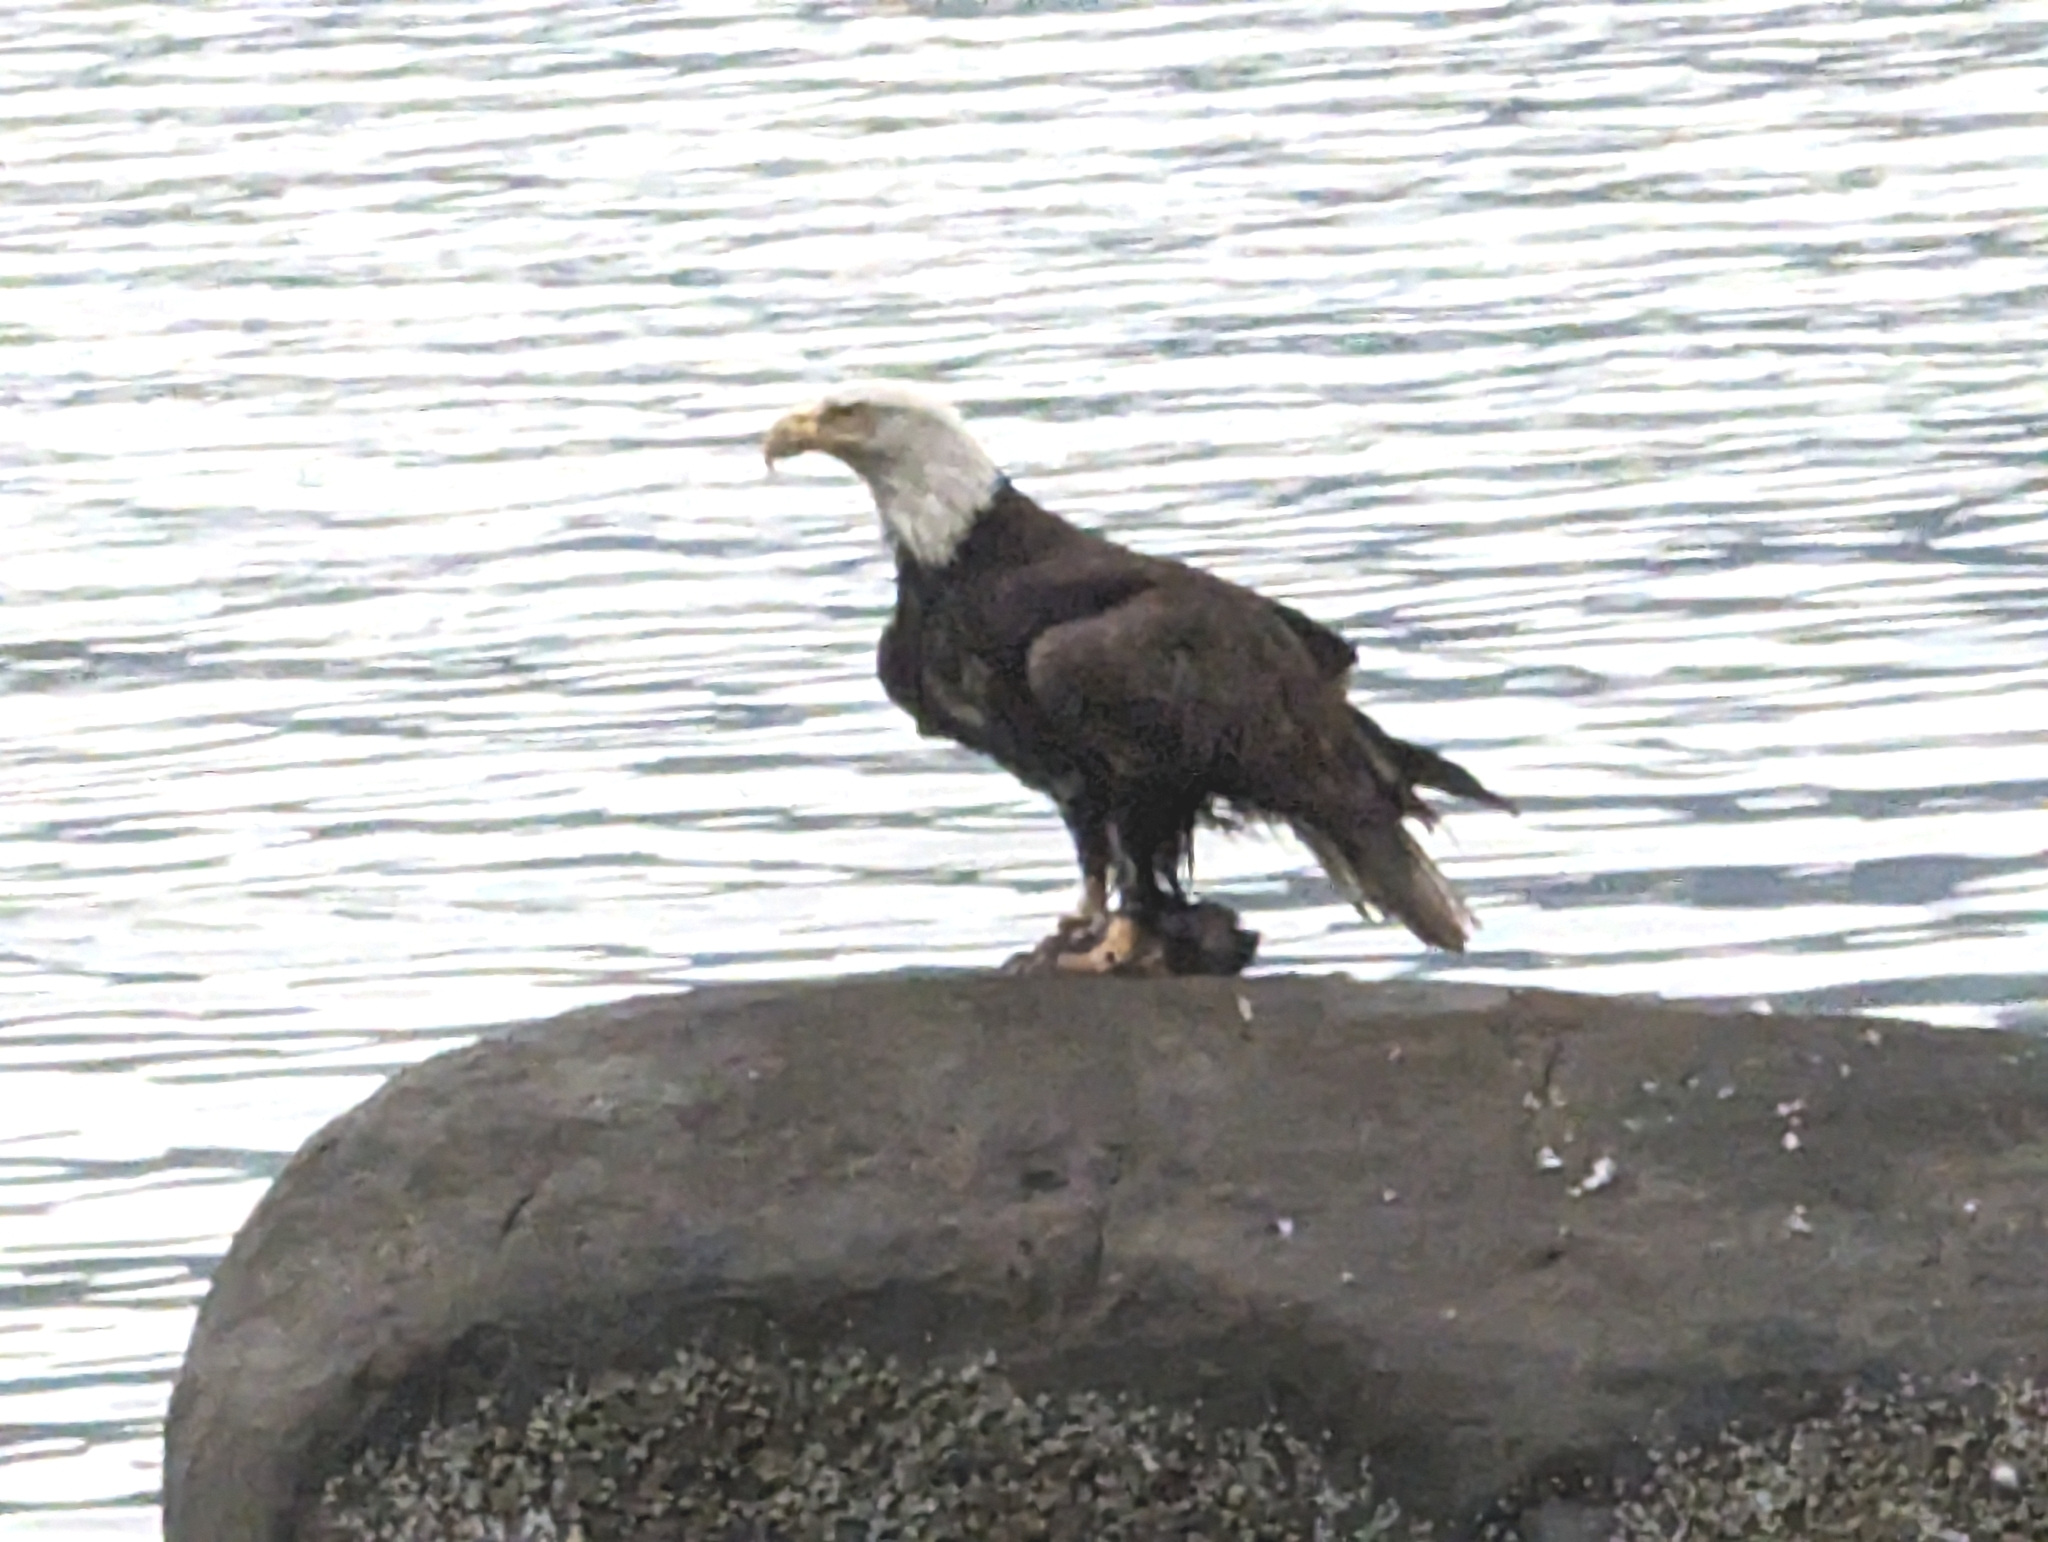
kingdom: Animalia
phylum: Chordata
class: Aves
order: Accipitriformes
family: Accipitridae
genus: Haliaeetus
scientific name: Haliaeetus leucocephalus
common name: Bald eagle
